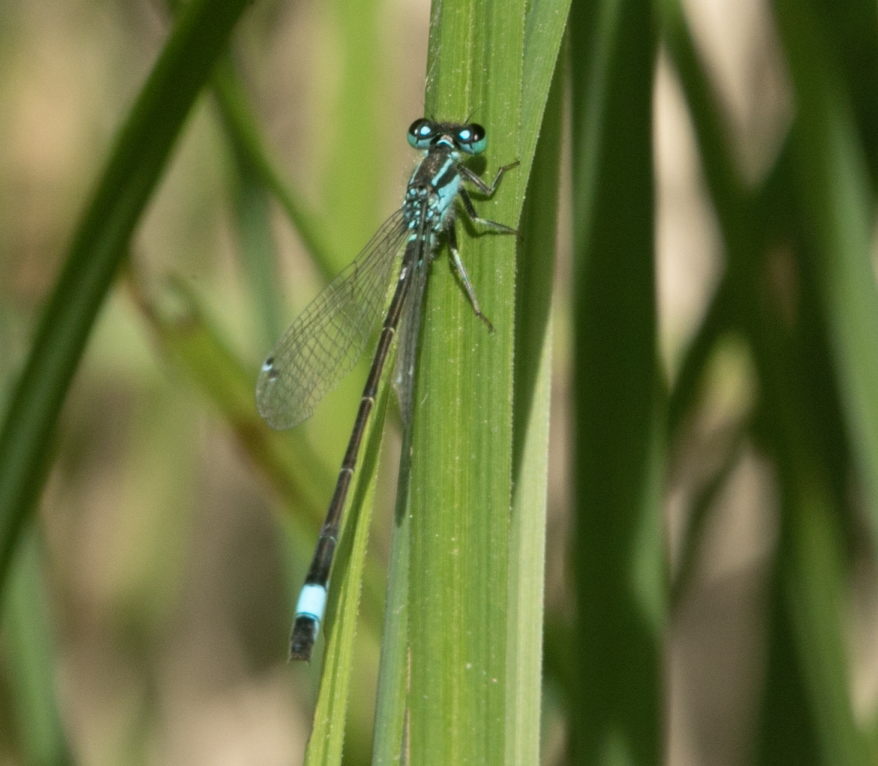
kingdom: Animalia
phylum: Arthropoda
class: Insecta
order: Odonata
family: Coenagrionidae
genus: Ischnura
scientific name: Ischnura elegans
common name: Blue-tailed damselfly
